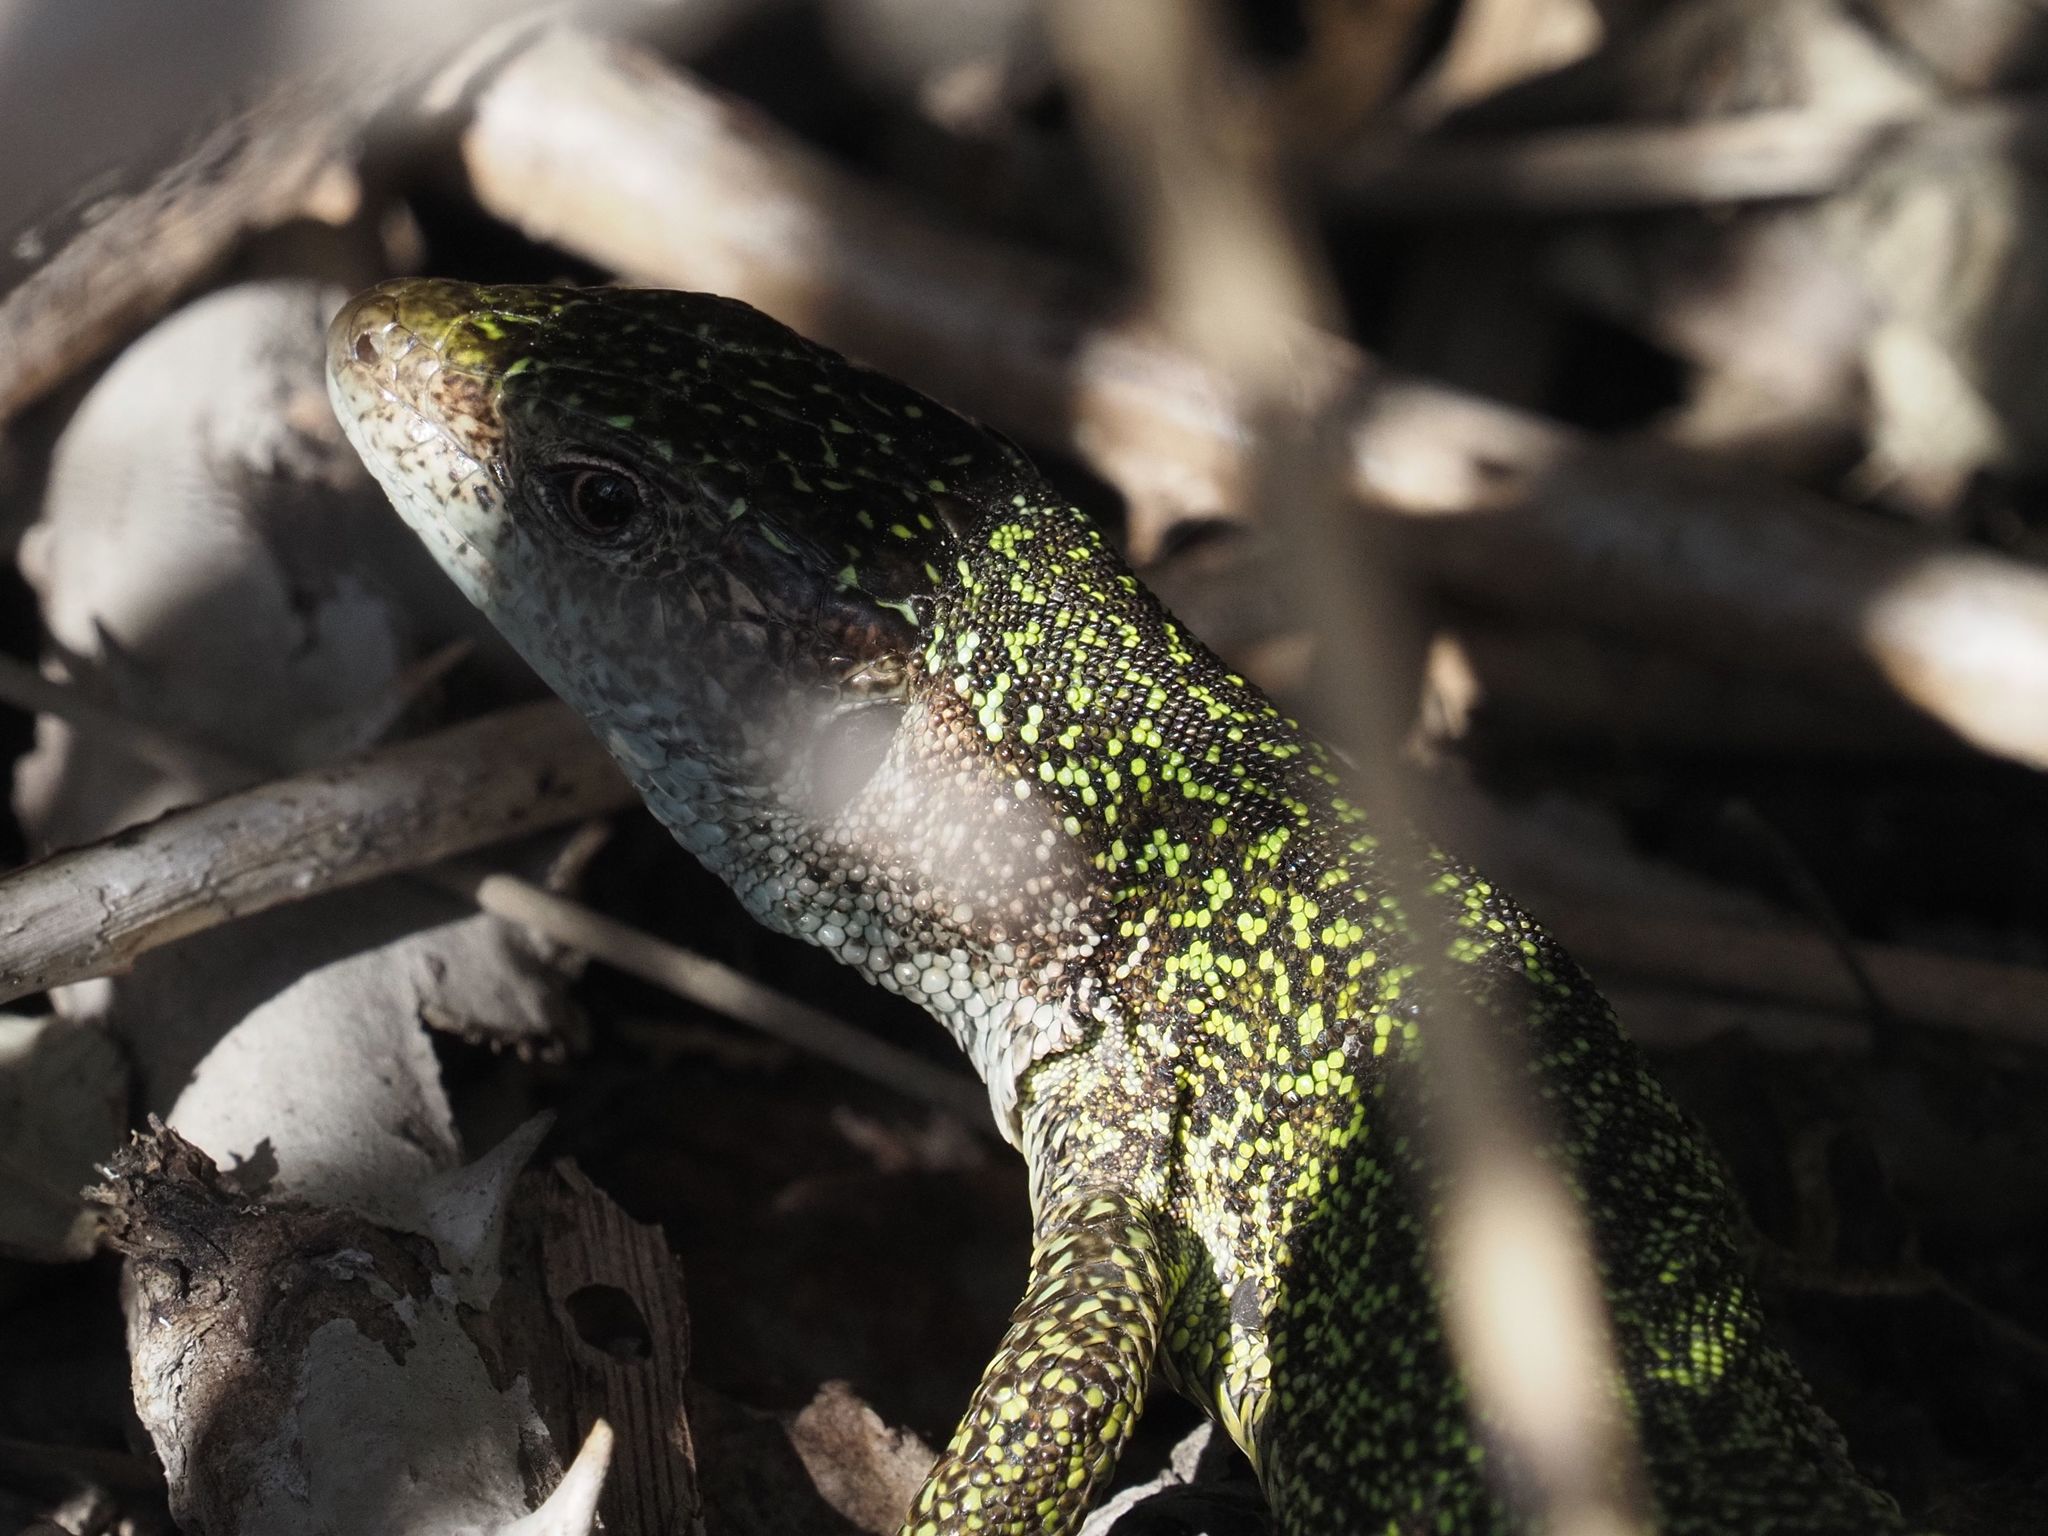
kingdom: Animalia
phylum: Chordata
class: Squamata
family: Lacertidae
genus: Lacerta
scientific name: Lacerta viridis
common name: European green lizard
